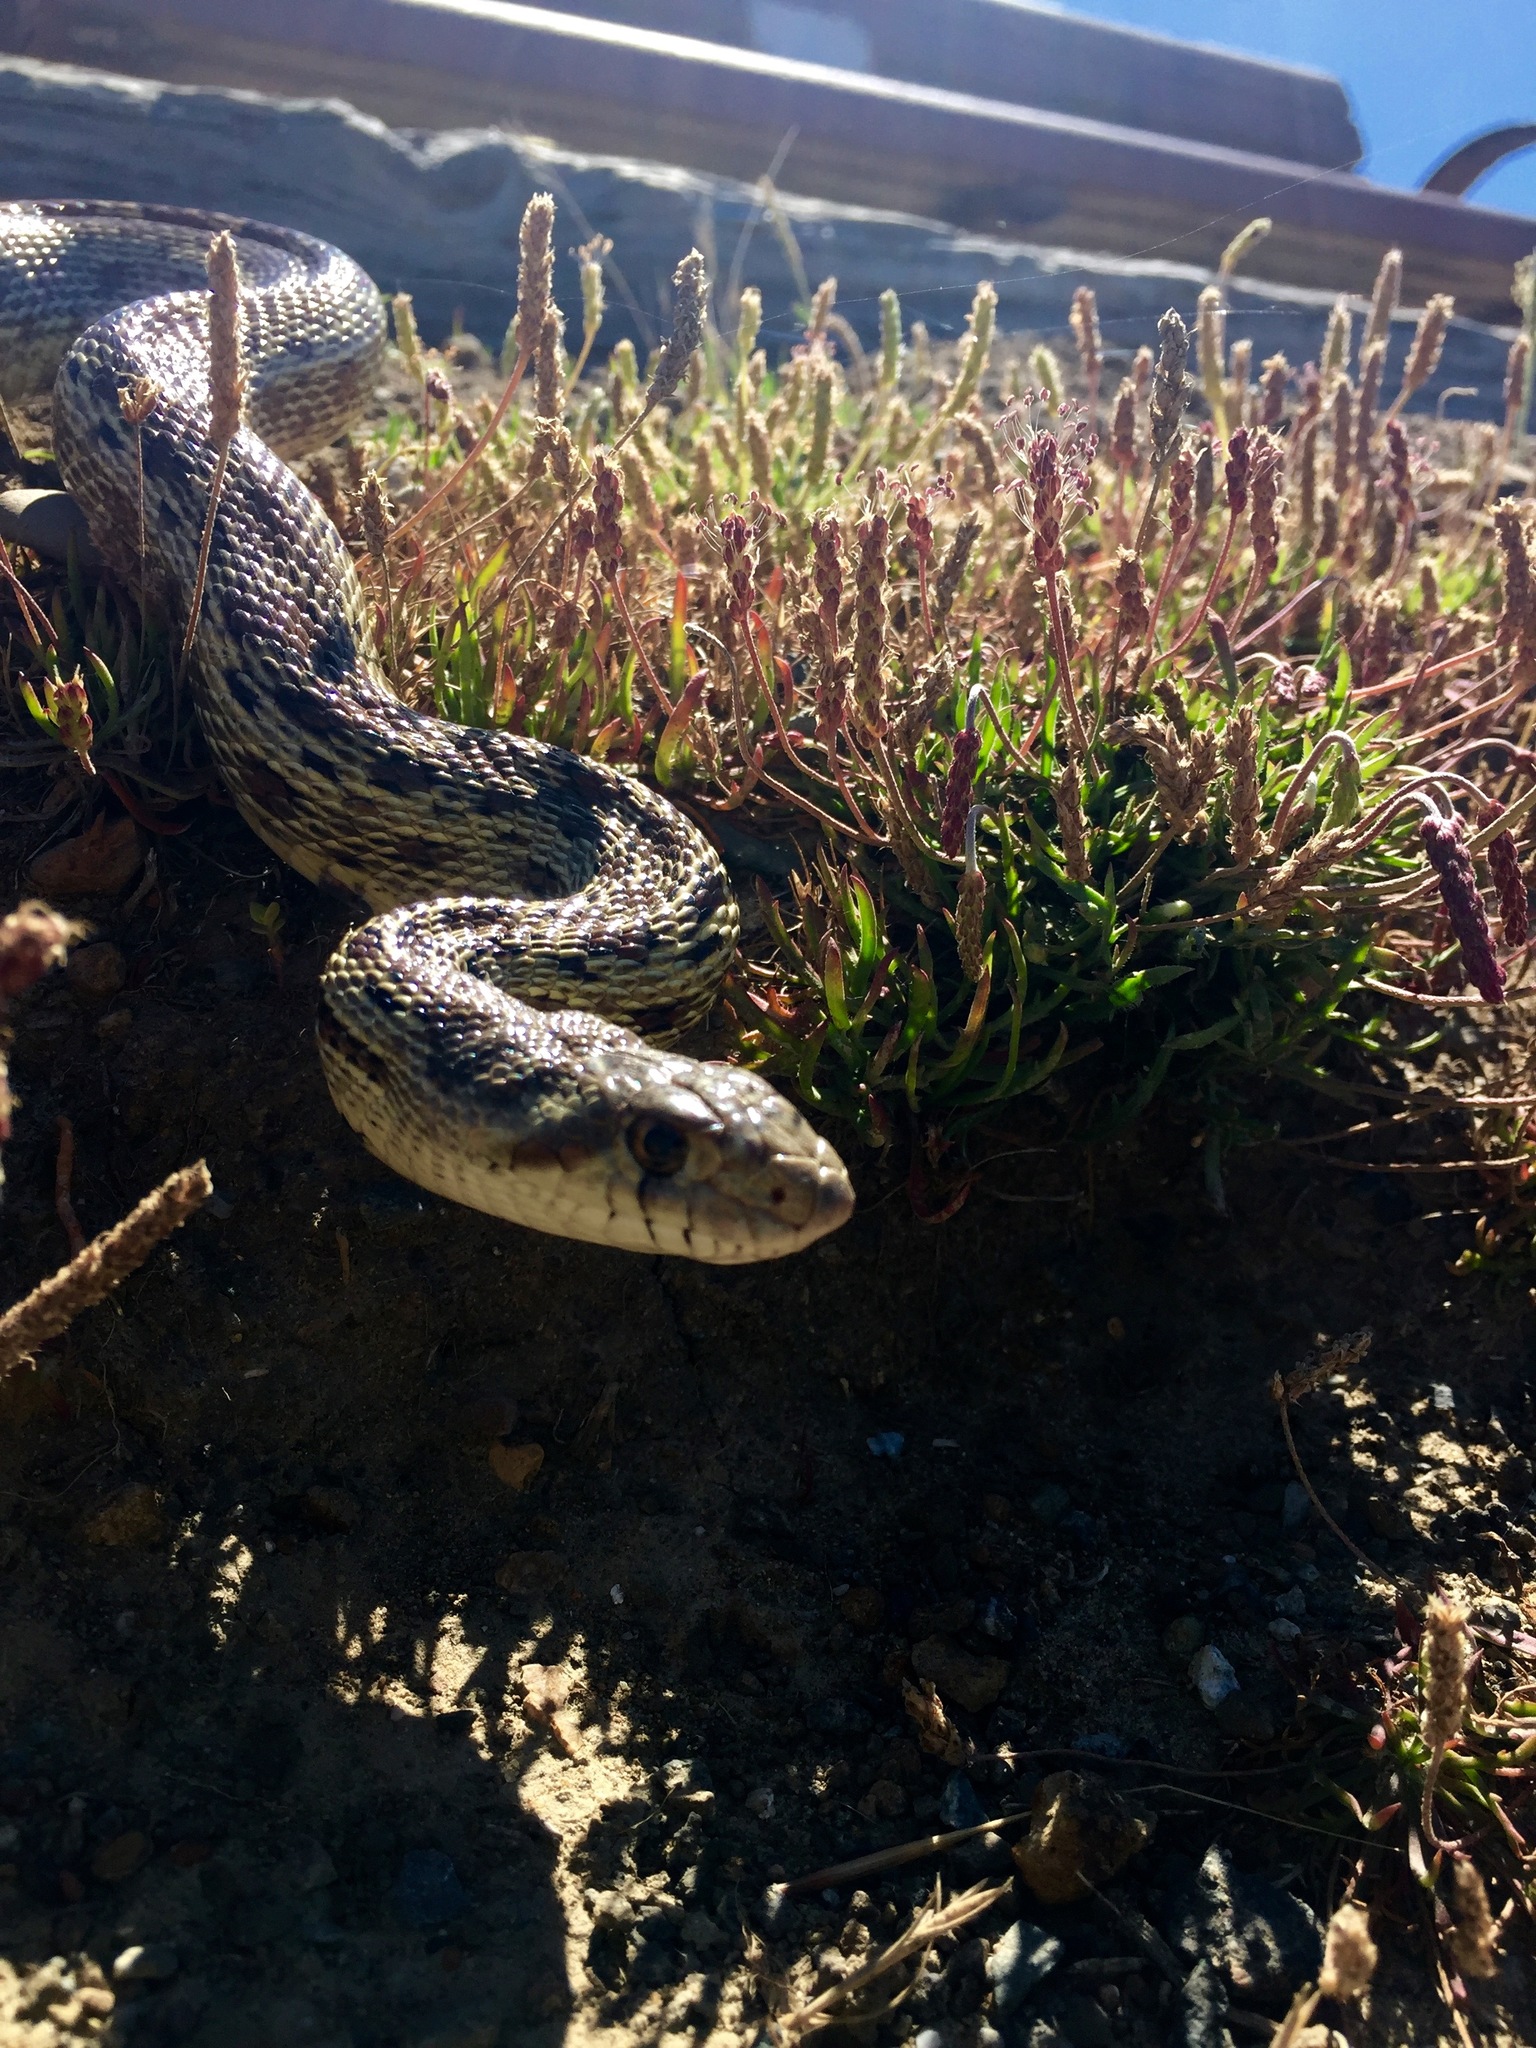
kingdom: Animalia
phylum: Chordata
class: Squamata
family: Colubridae
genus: Pituophis
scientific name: Pituophis catenifer
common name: Gopher snake
